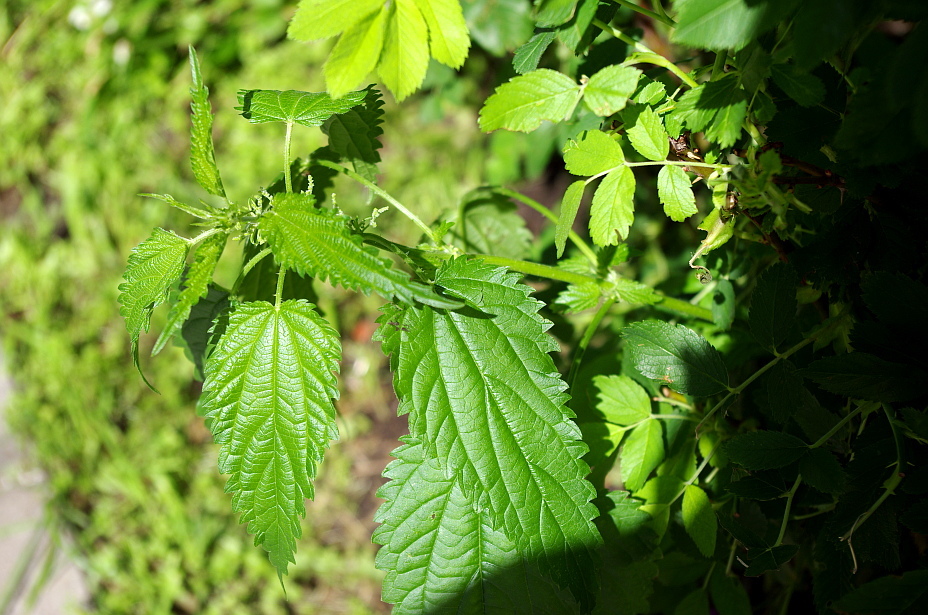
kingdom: Plantae
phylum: Tracheophyta
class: Magnoliopsida
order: Rosales
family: Urticaceae
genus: Urtica
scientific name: Urtica dioica
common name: Common nettle
